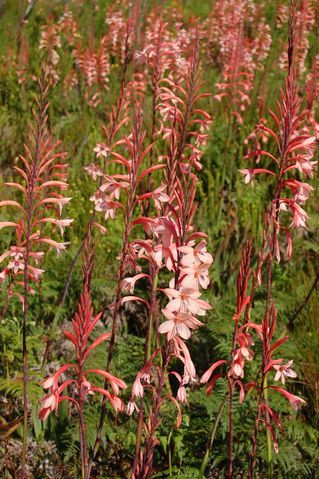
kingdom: Plantae
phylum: Tracheophyta
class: Liliopsida
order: Asparagales
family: Iridaceae
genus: Watsonia
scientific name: Watsonia fourcadei
